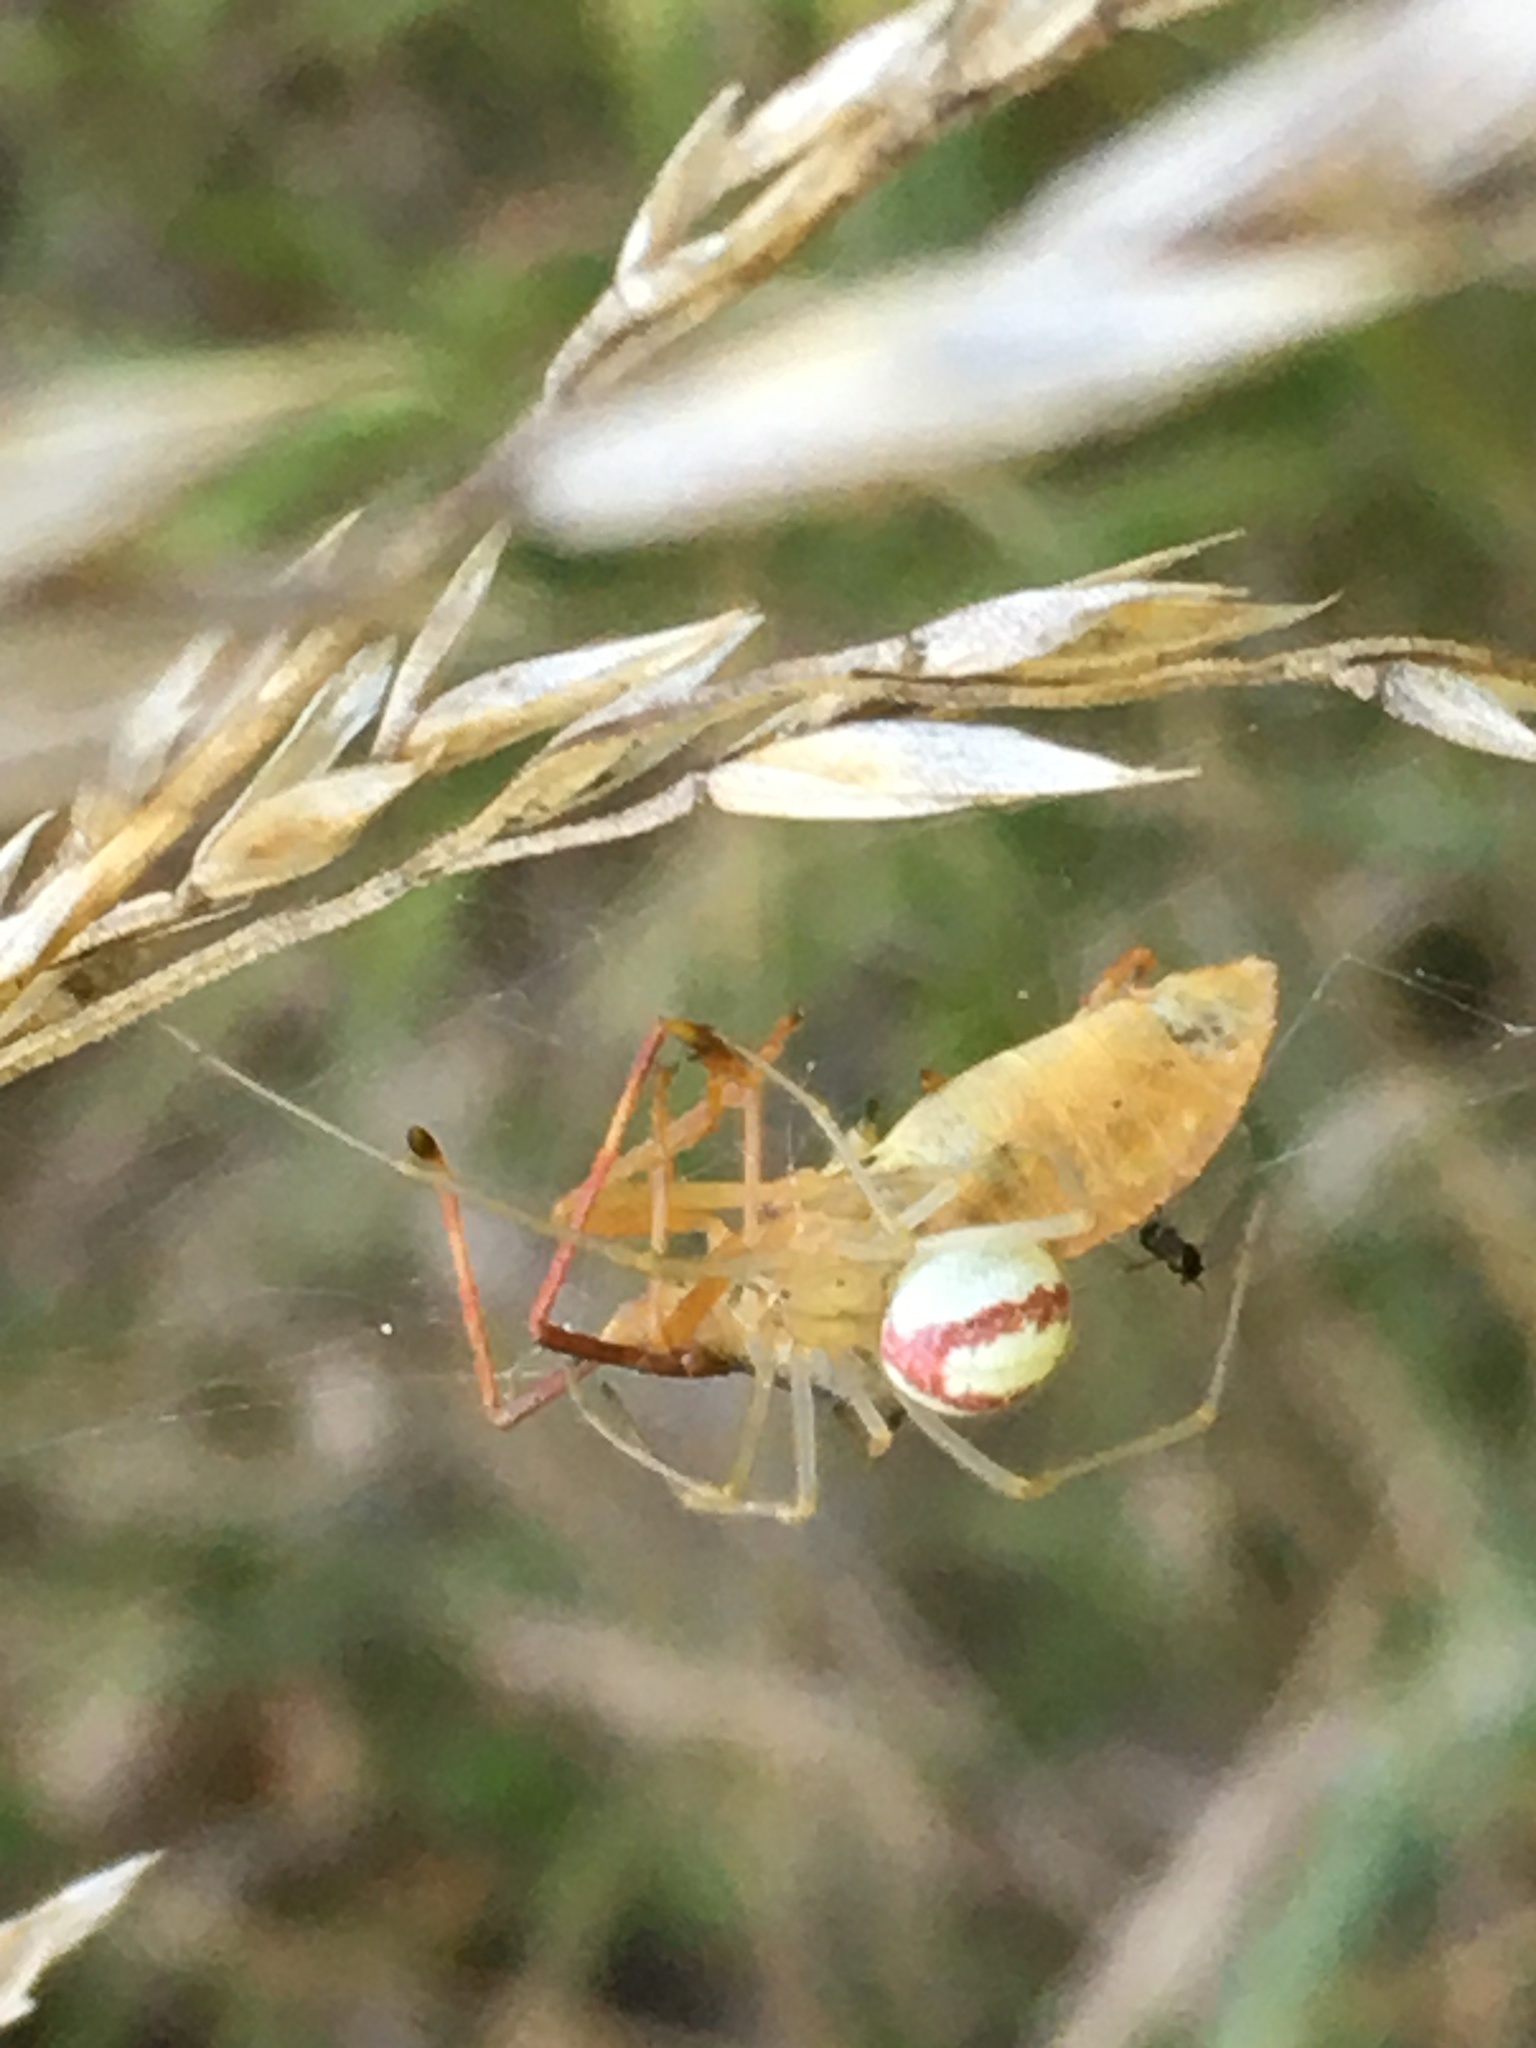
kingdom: Animalia
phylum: Arthropoda
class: Arachnida
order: Araneae
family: Theridiidae
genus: Enoplognatha
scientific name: Enoplognatha
